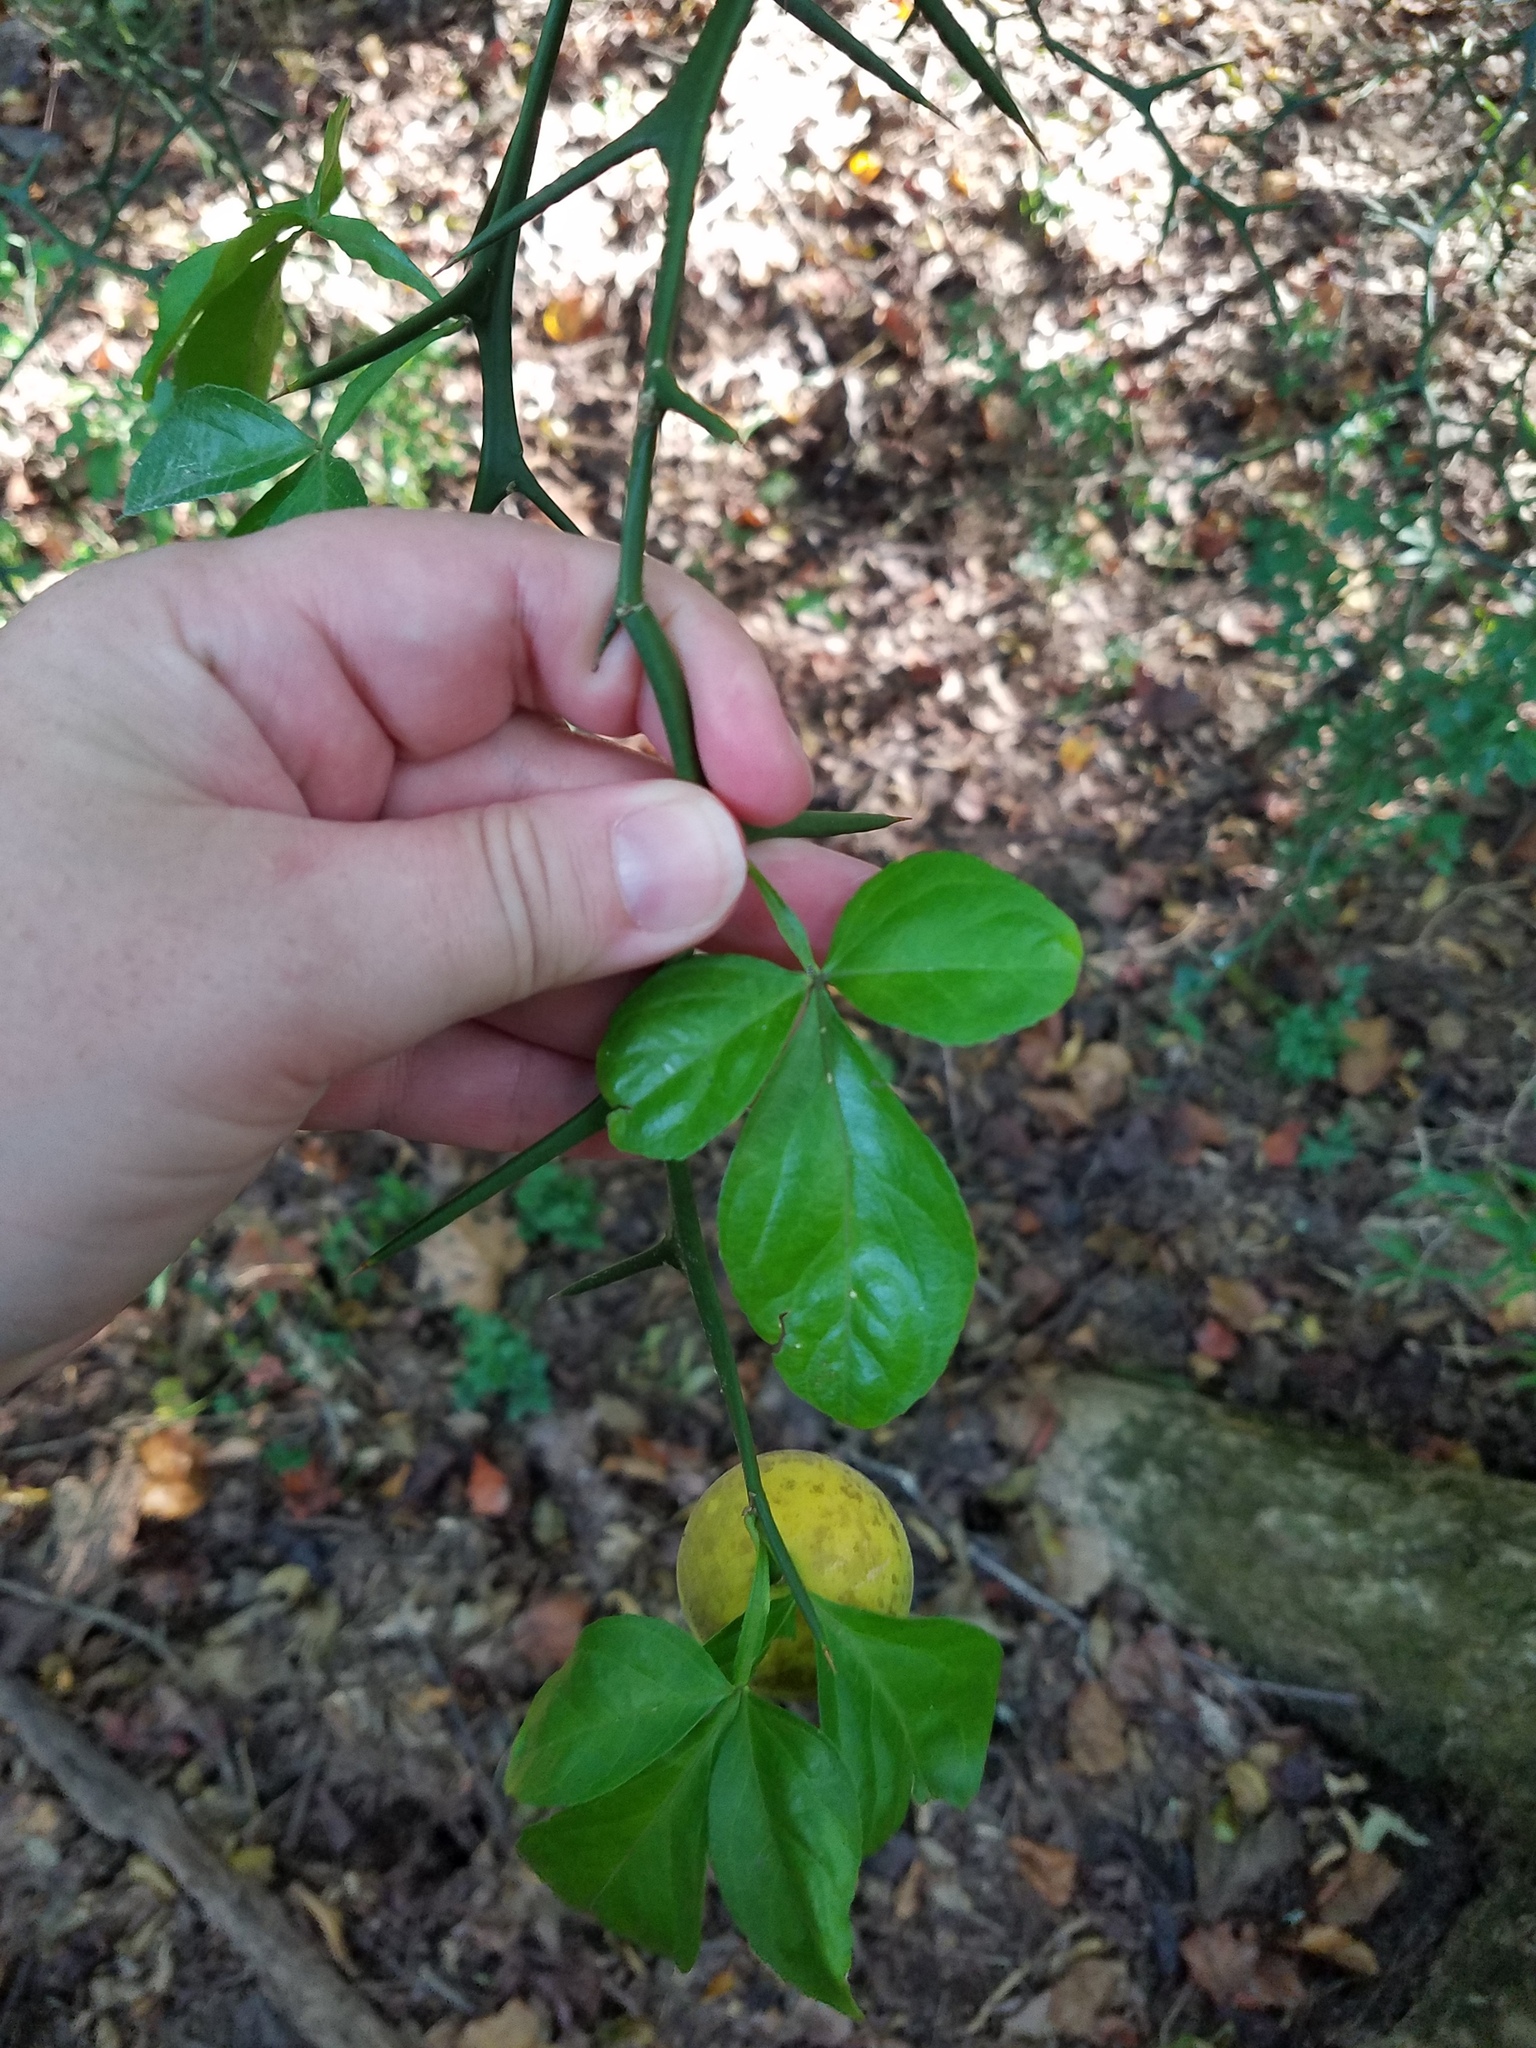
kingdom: Plantae
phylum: Tracheophyta
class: Magnoliopsida
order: Sapindales
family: Rutaceae
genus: Citrus
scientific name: Citrus trifoliata
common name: Japanese bitter-orange
